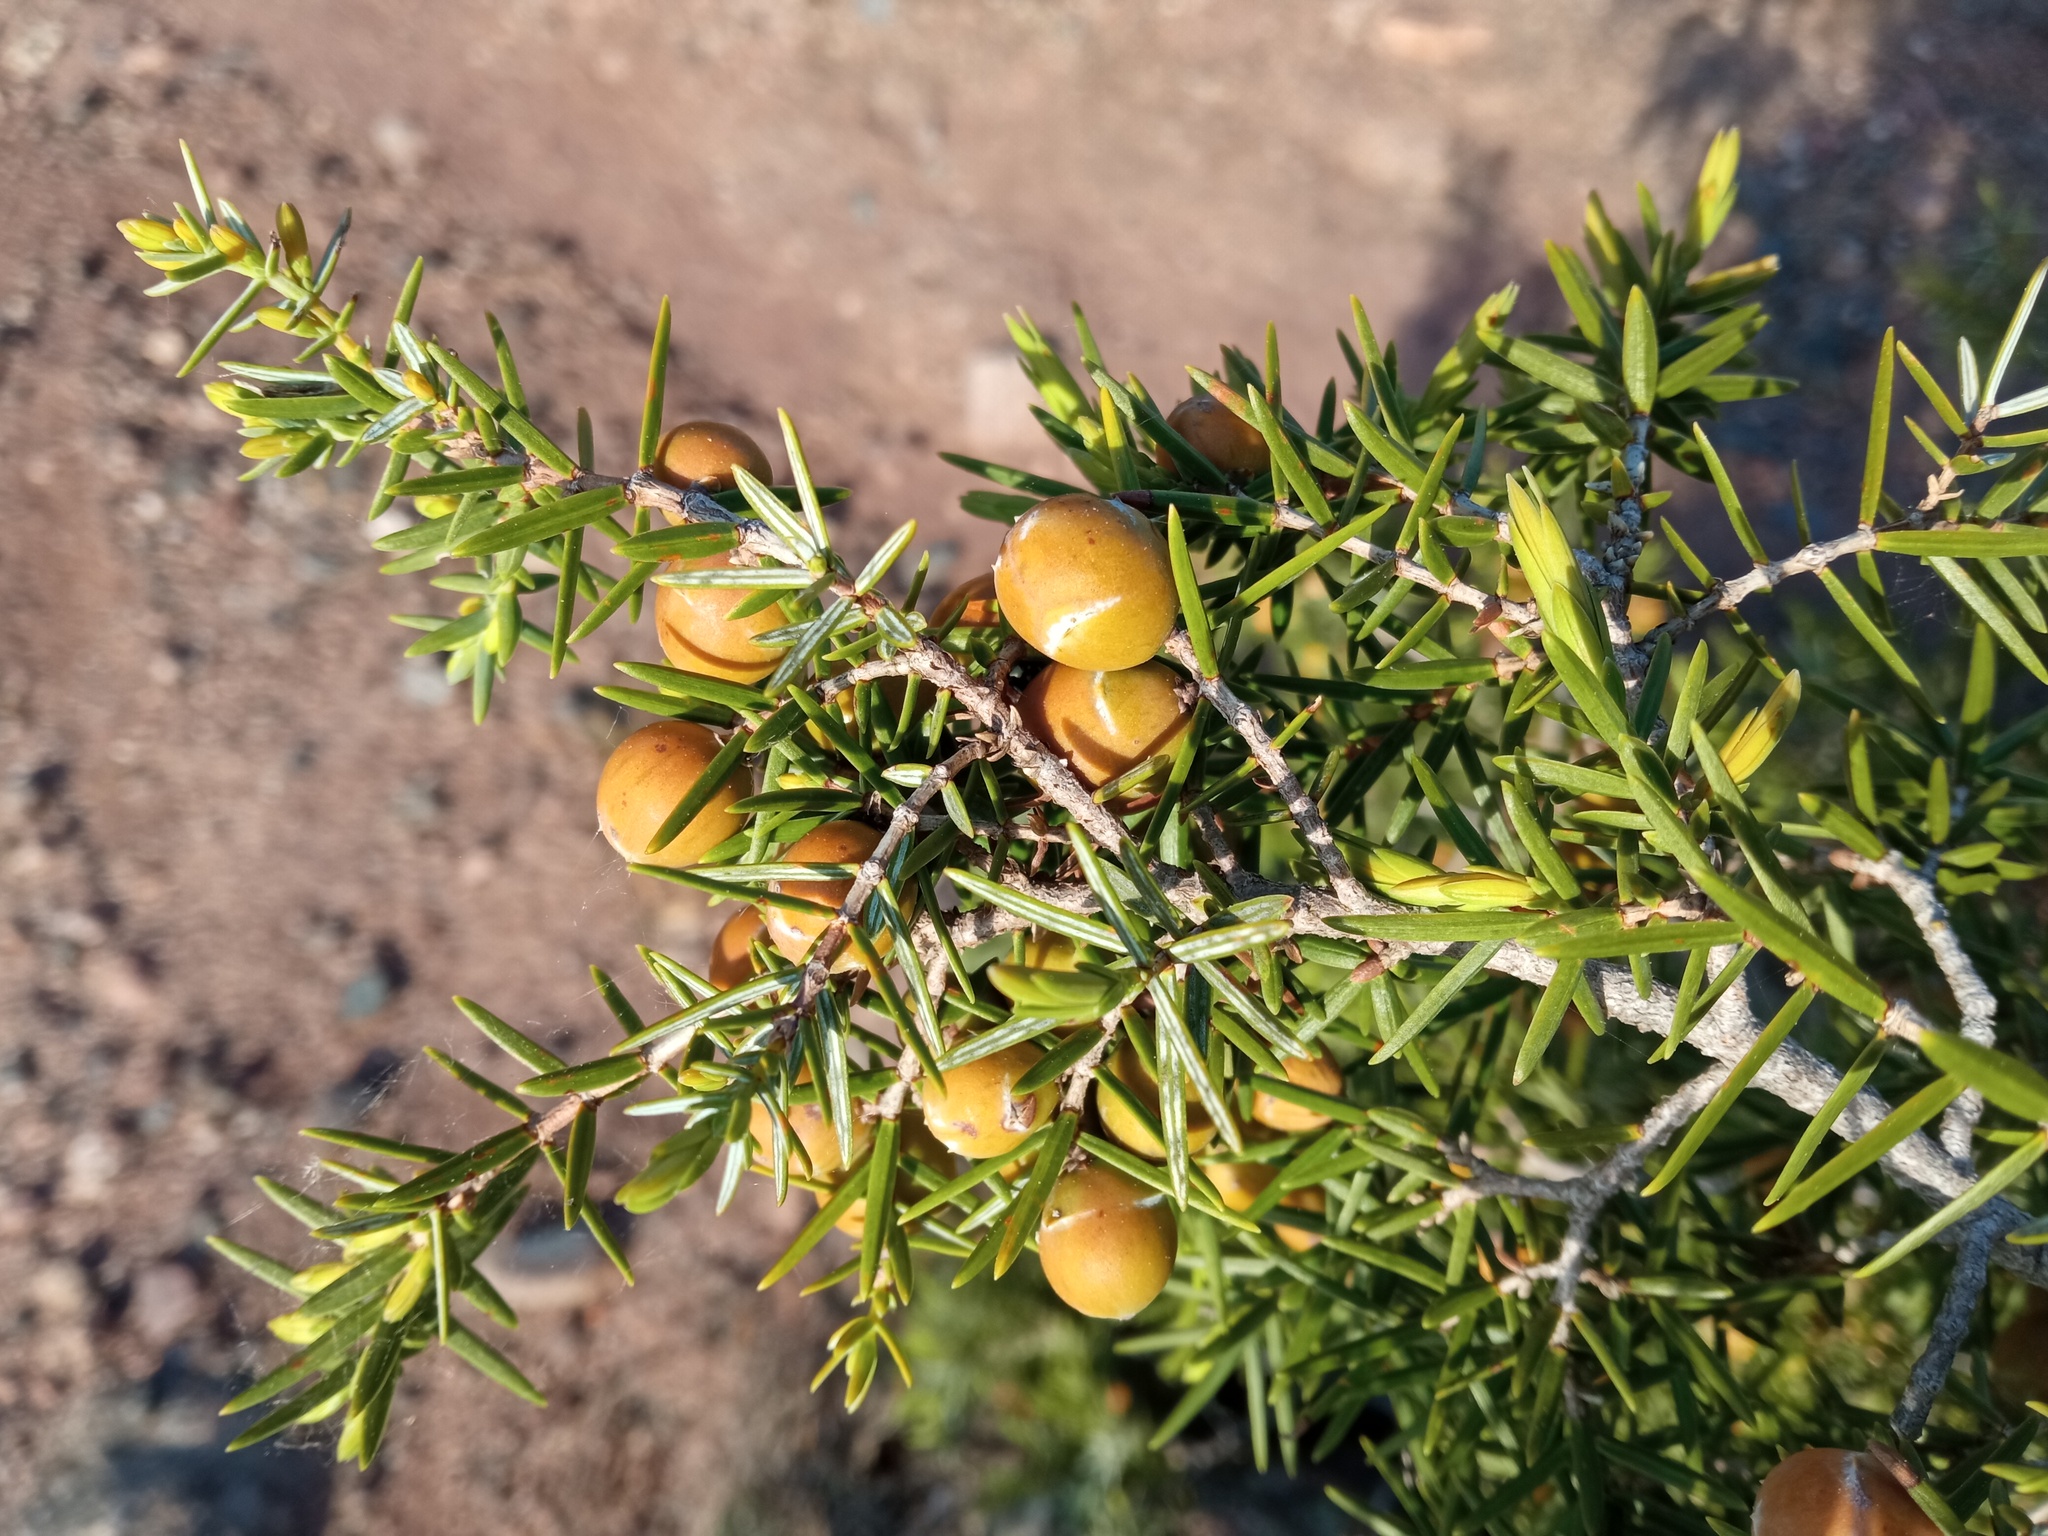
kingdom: Plantae
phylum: Tracheophyta
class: Pinopsida
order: Pinales
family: Cupressaceae
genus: Juniperus
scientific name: Juniperus oxycedrus
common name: Prickly juniper
